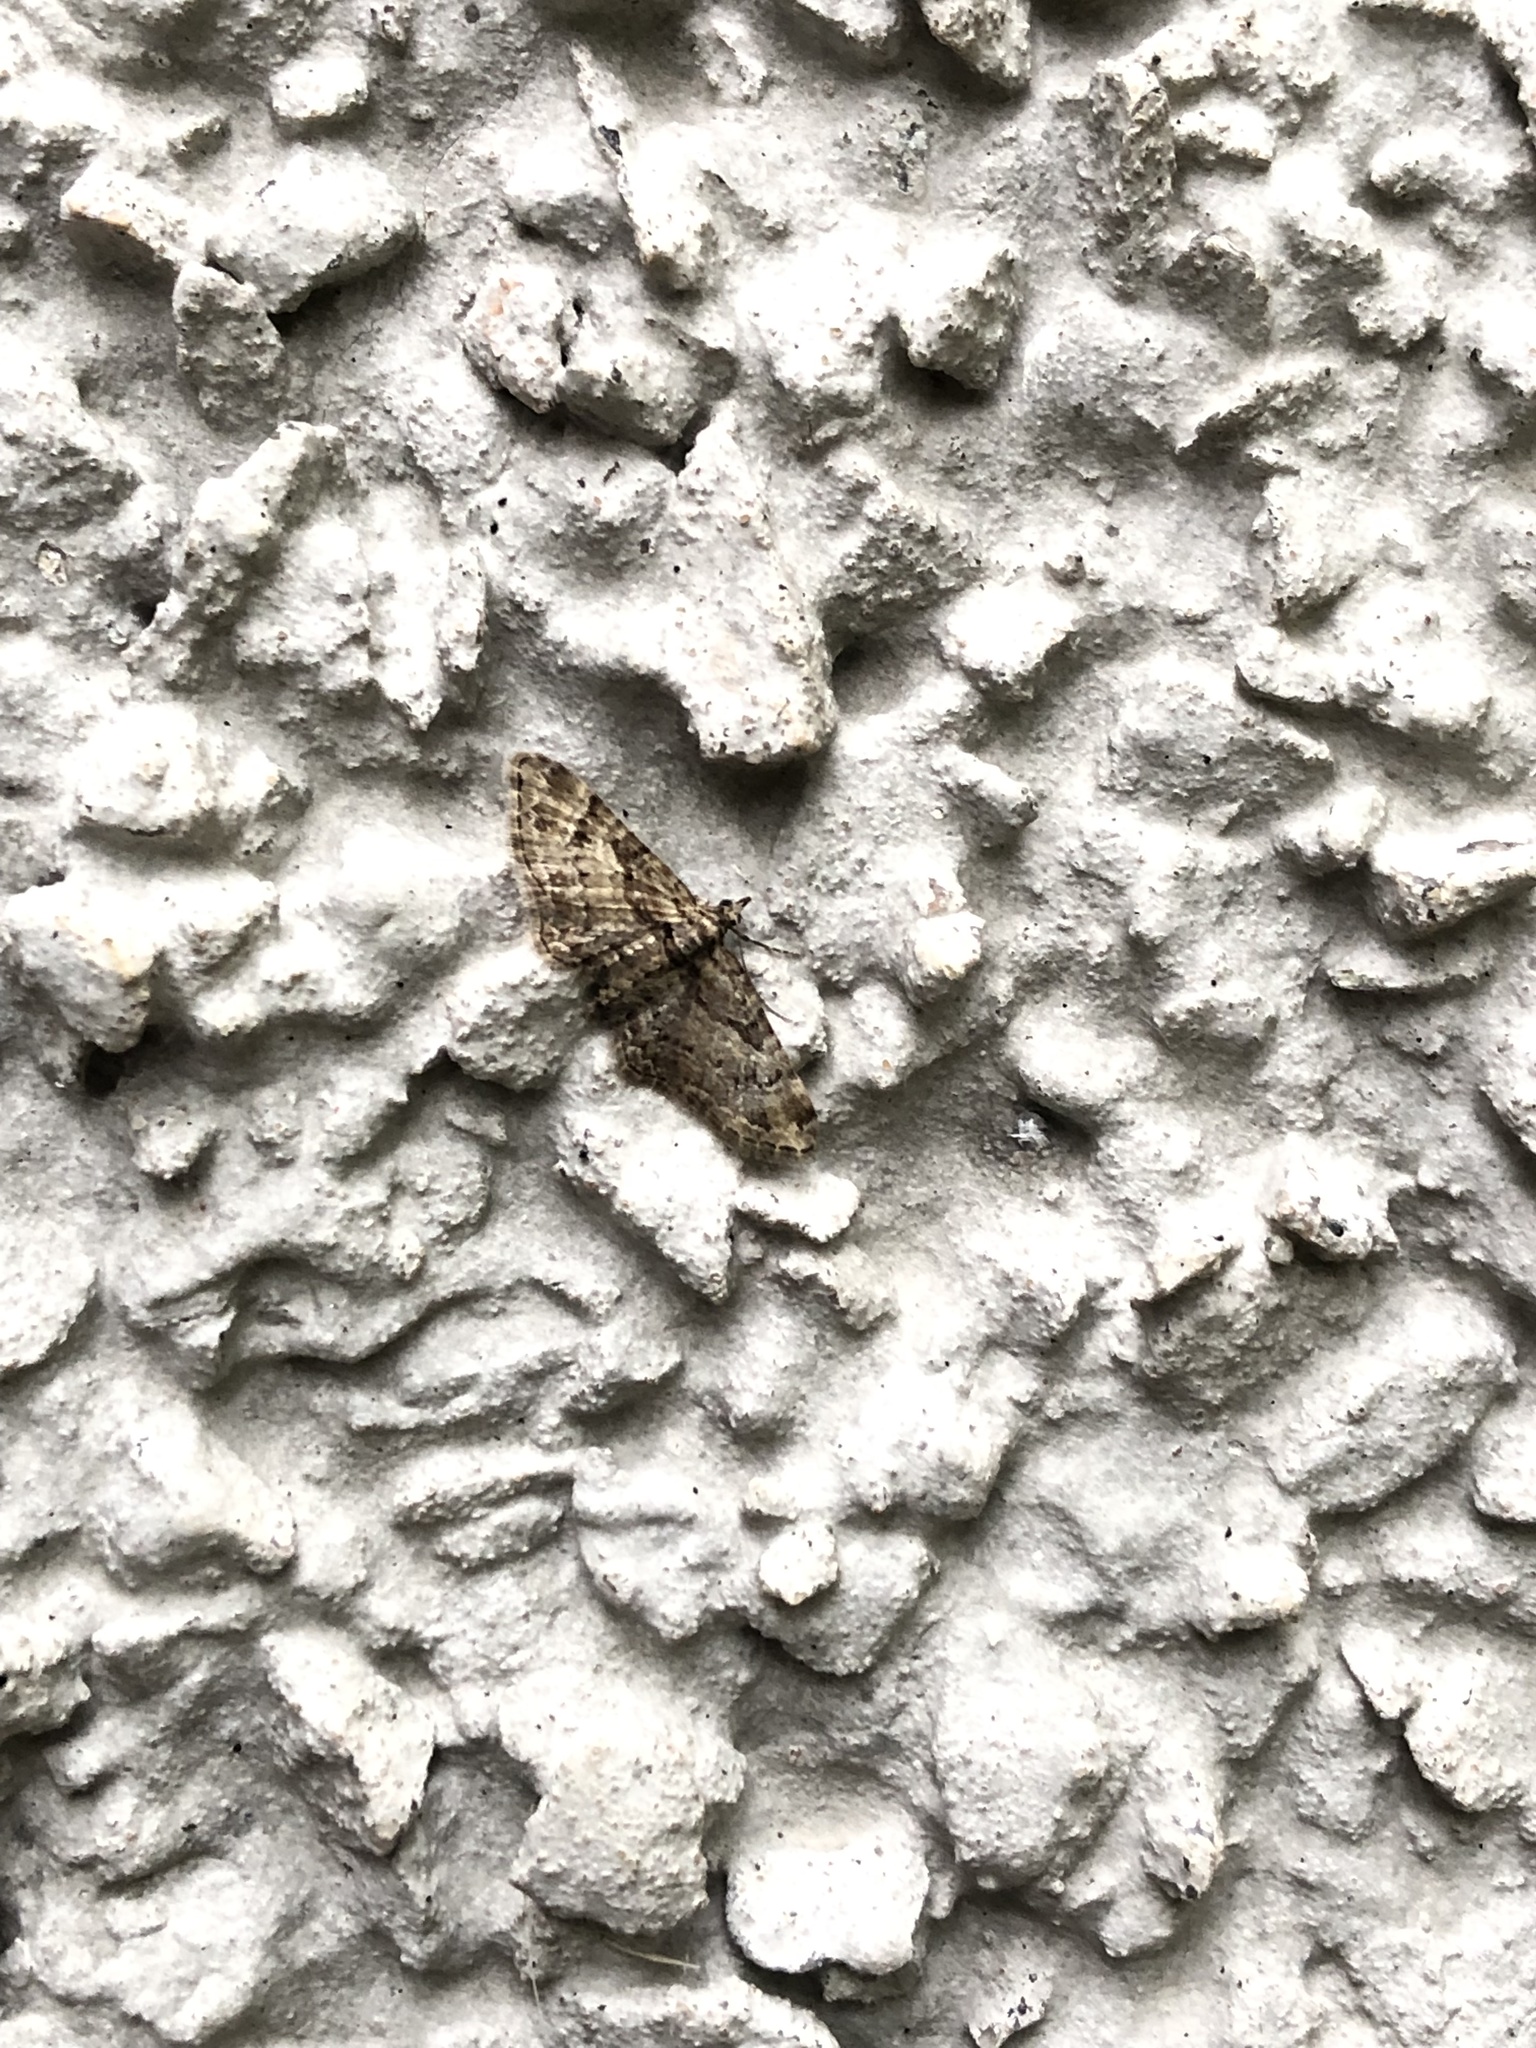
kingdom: Animalia
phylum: Arthropoda
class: Insecta
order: Lepidoptera
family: Geometridae
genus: Gymnoscelis
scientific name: Gymnoscelis rufifasciata
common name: Double-striped pug
